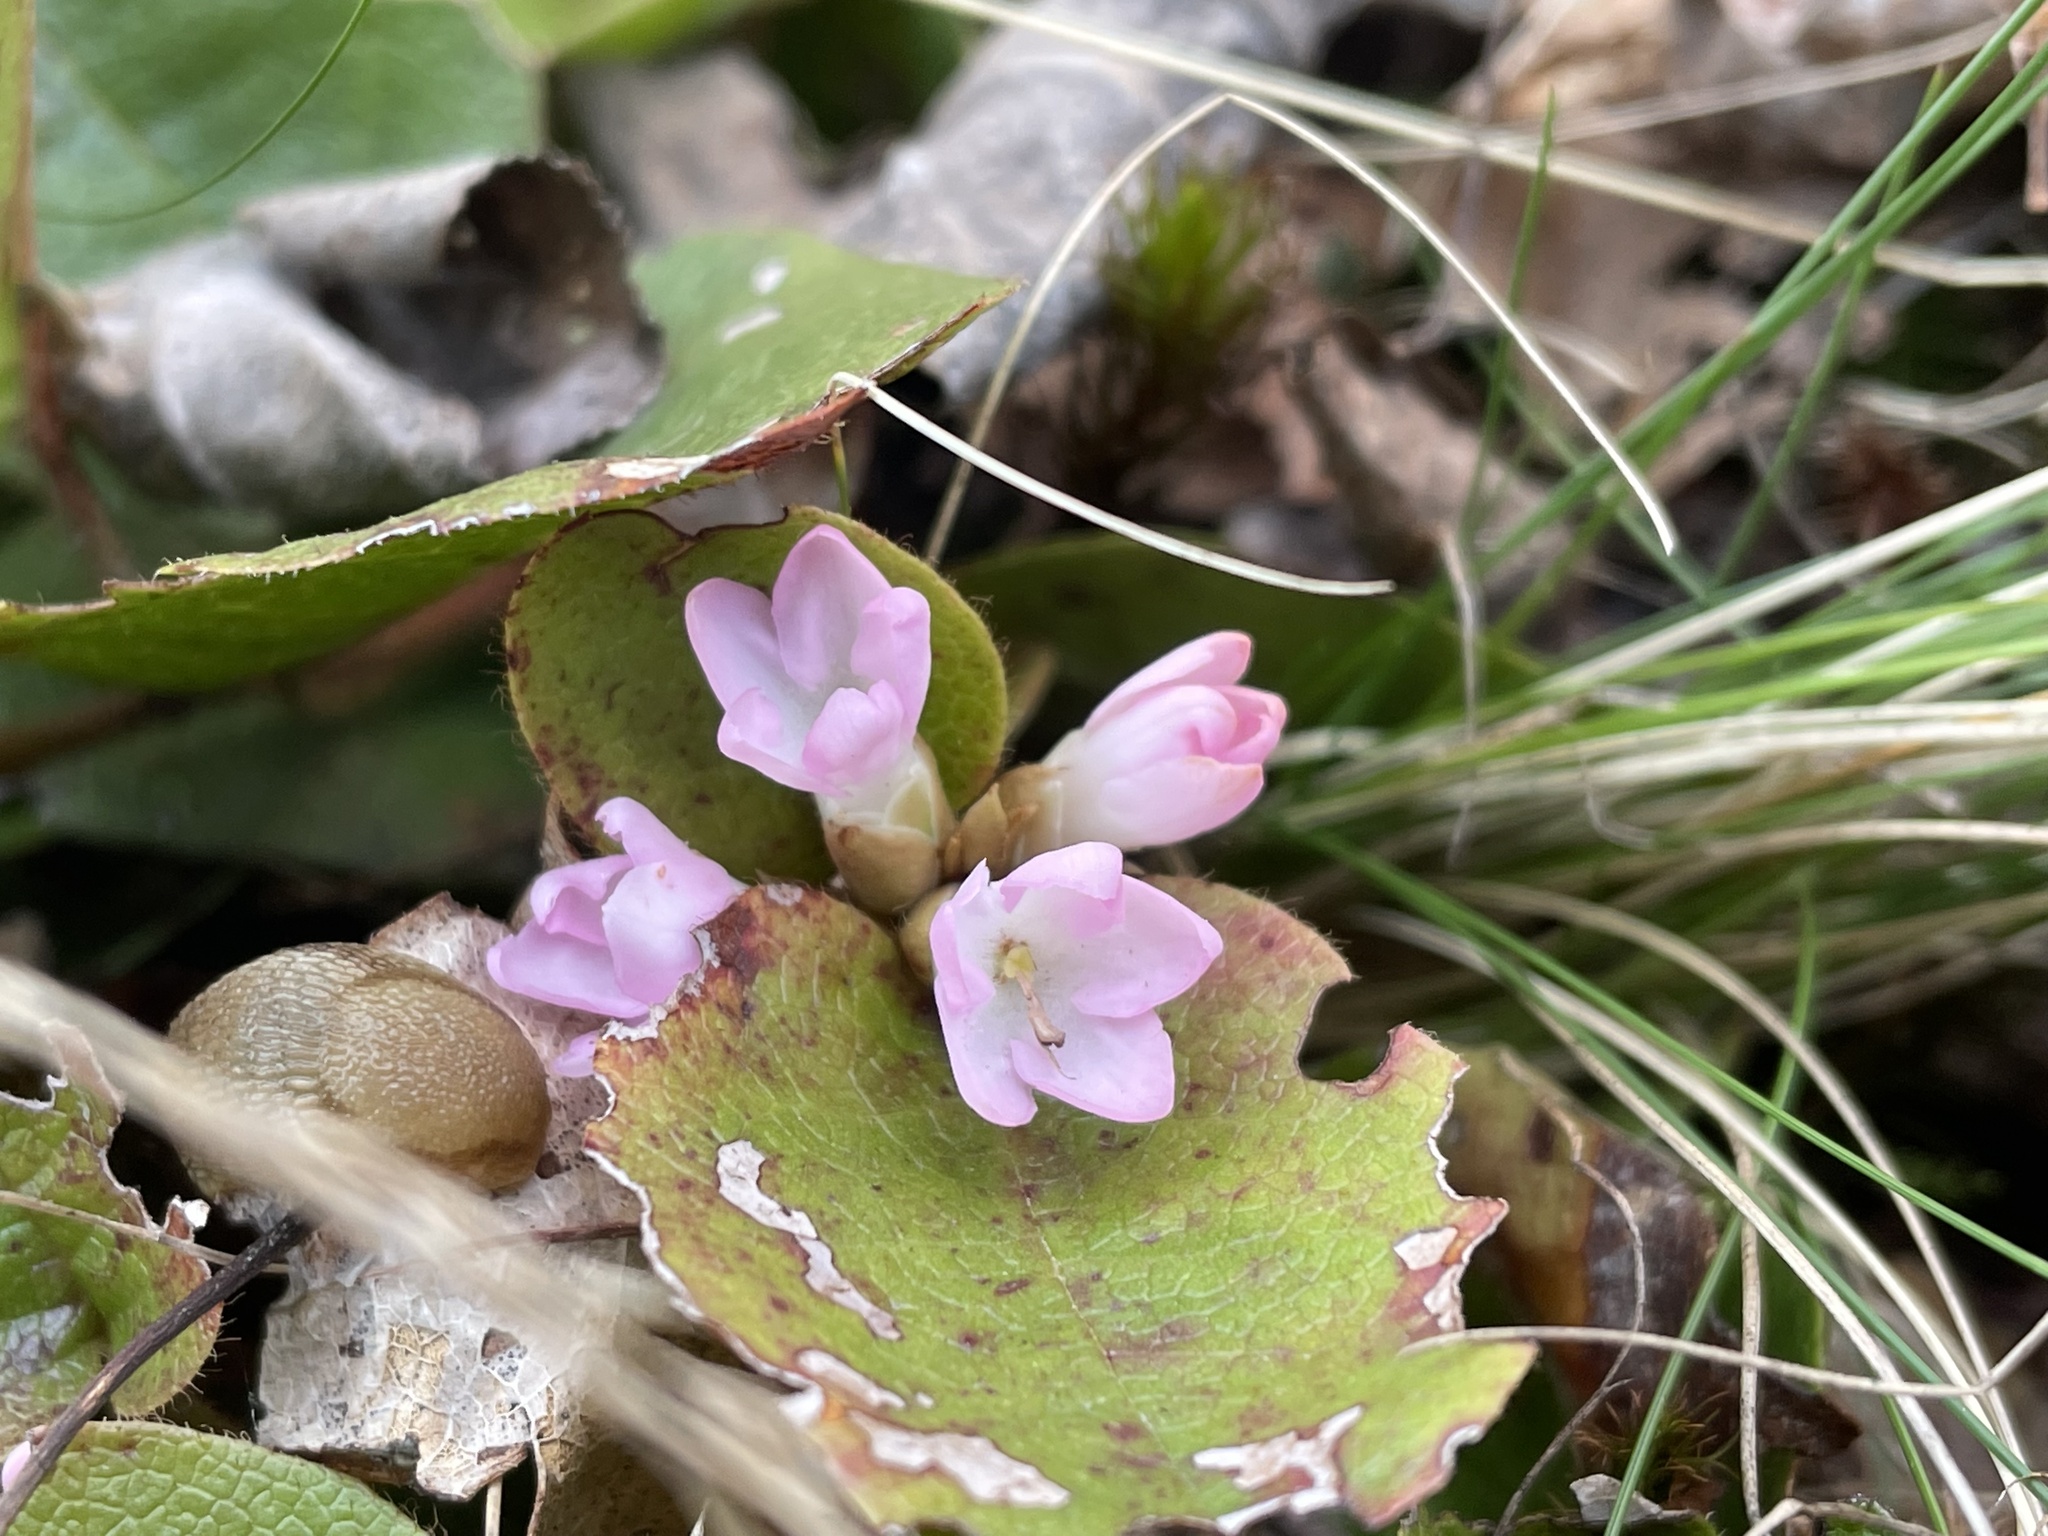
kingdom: Plantae
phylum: Tracheophyta
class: Magnoliopsida
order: Ericales
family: Ericaceae
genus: Epigaea
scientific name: Epigaea repens
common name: Gravelroot
